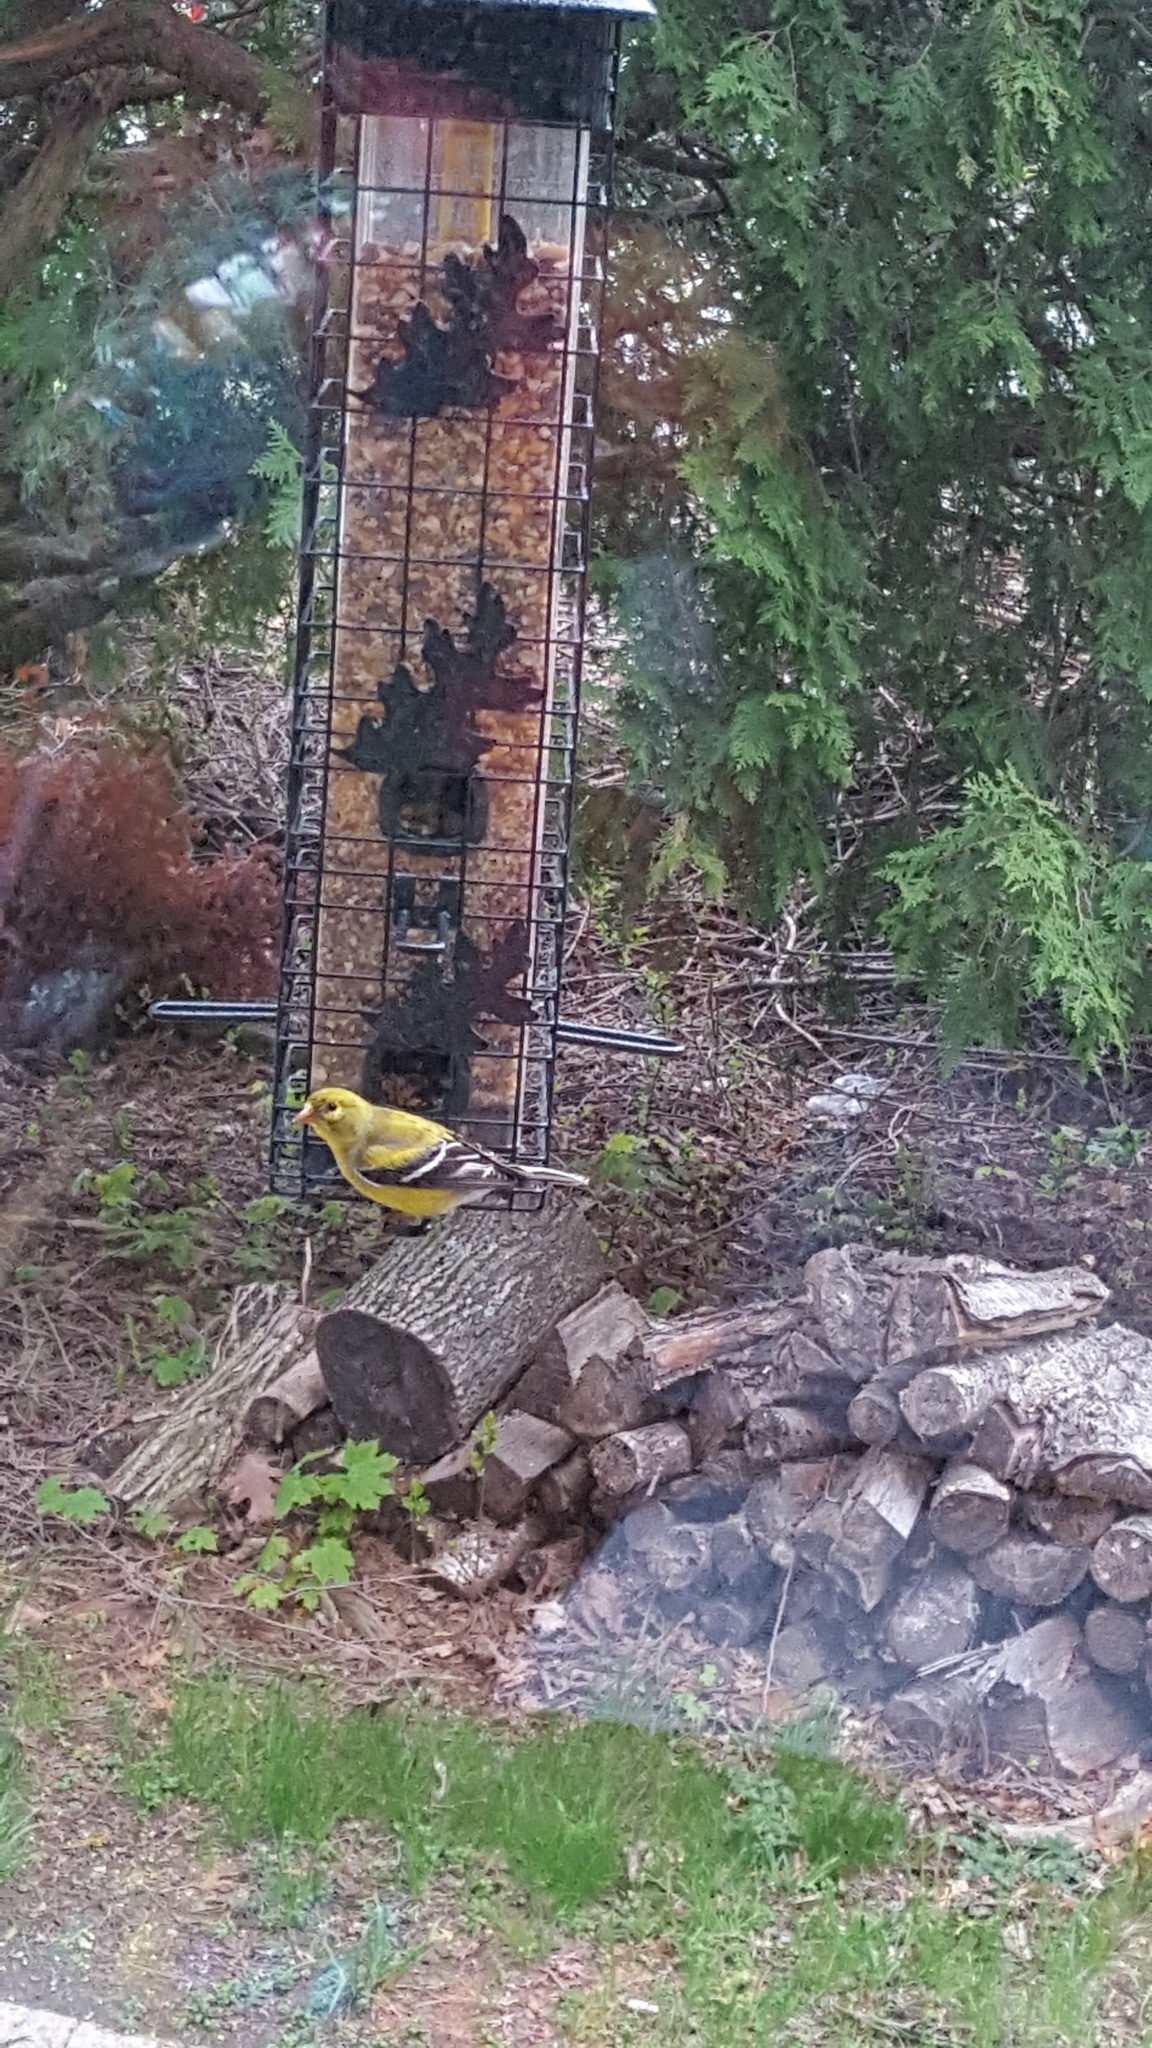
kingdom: Animalia
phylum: Chordata
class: Aves
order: Passeriformes
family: Fringillidae
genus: Spinus
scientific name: Spinus tristis
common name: American goldfinch
